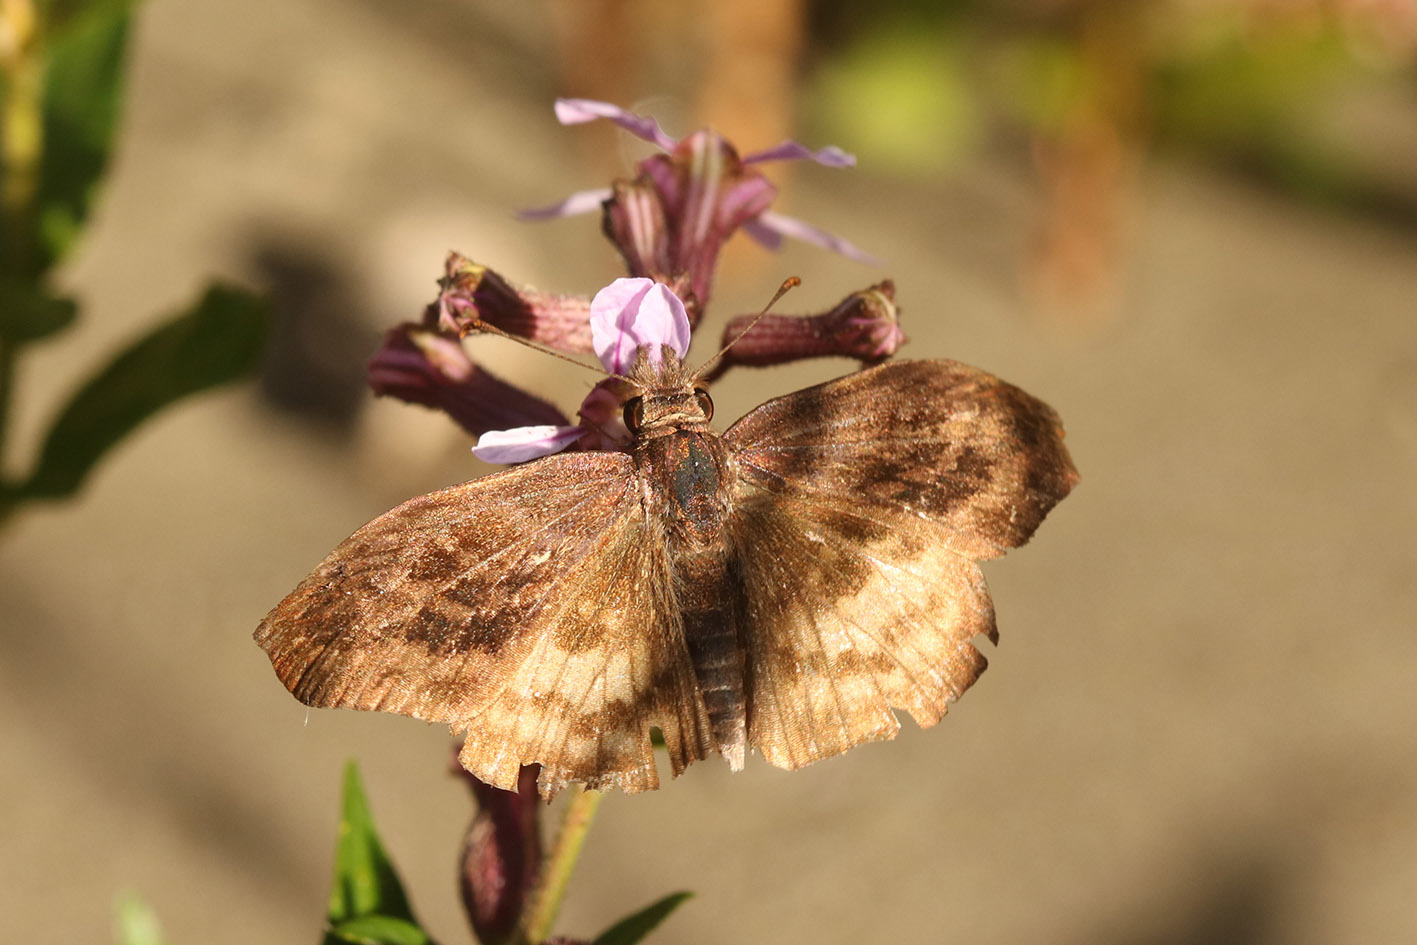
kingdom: Animalia
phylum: Arthropoda
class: Insecta
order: Lepidoptera
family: Hesperiidae
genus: Theagenes
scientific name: Theagenes dichrous
